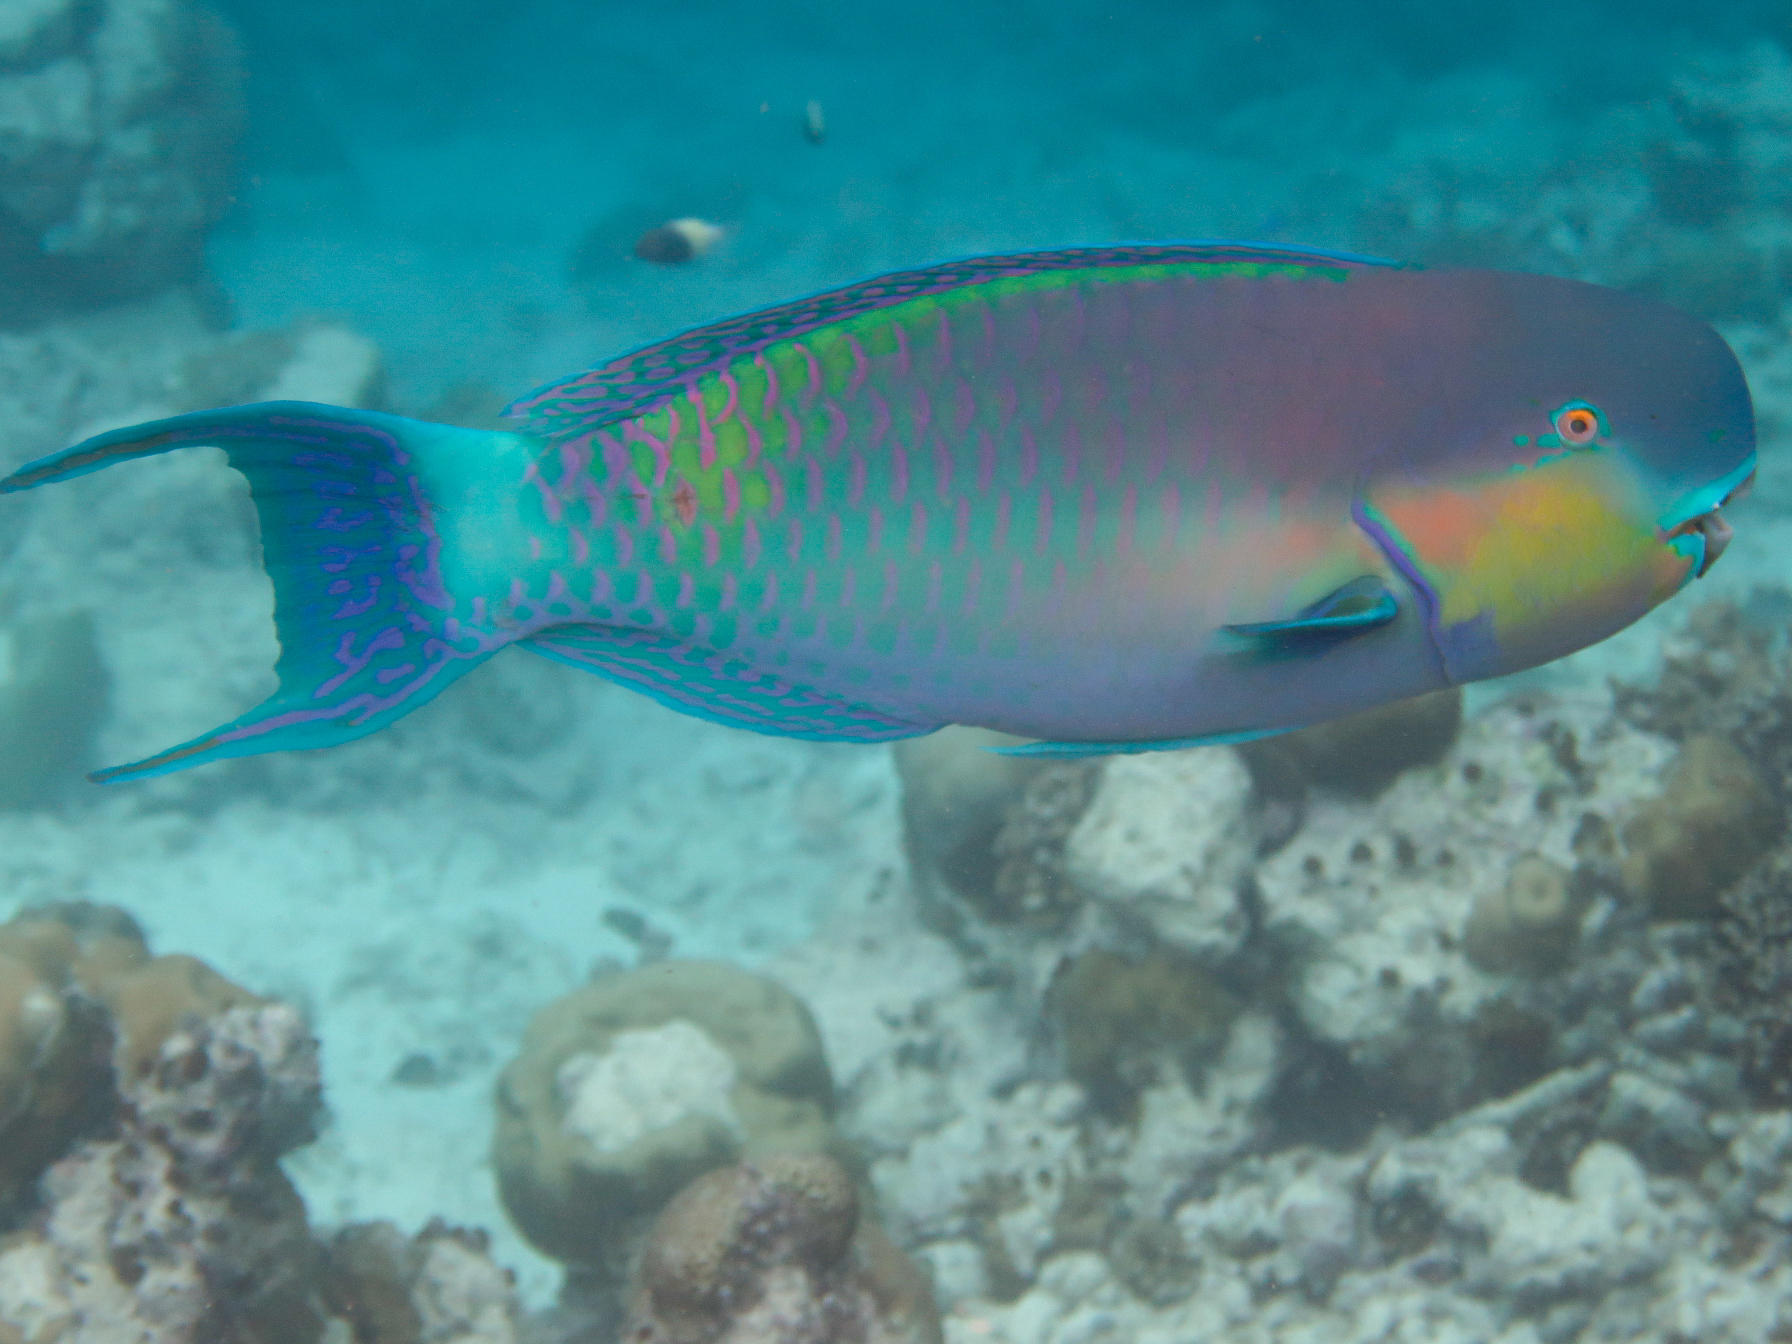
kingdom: Animalia
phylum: Chordata
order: Perciformes
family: Scaridae
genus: Chlorurus
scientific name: Chlorurus strongylocephalus
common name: Steephead parrotfish
